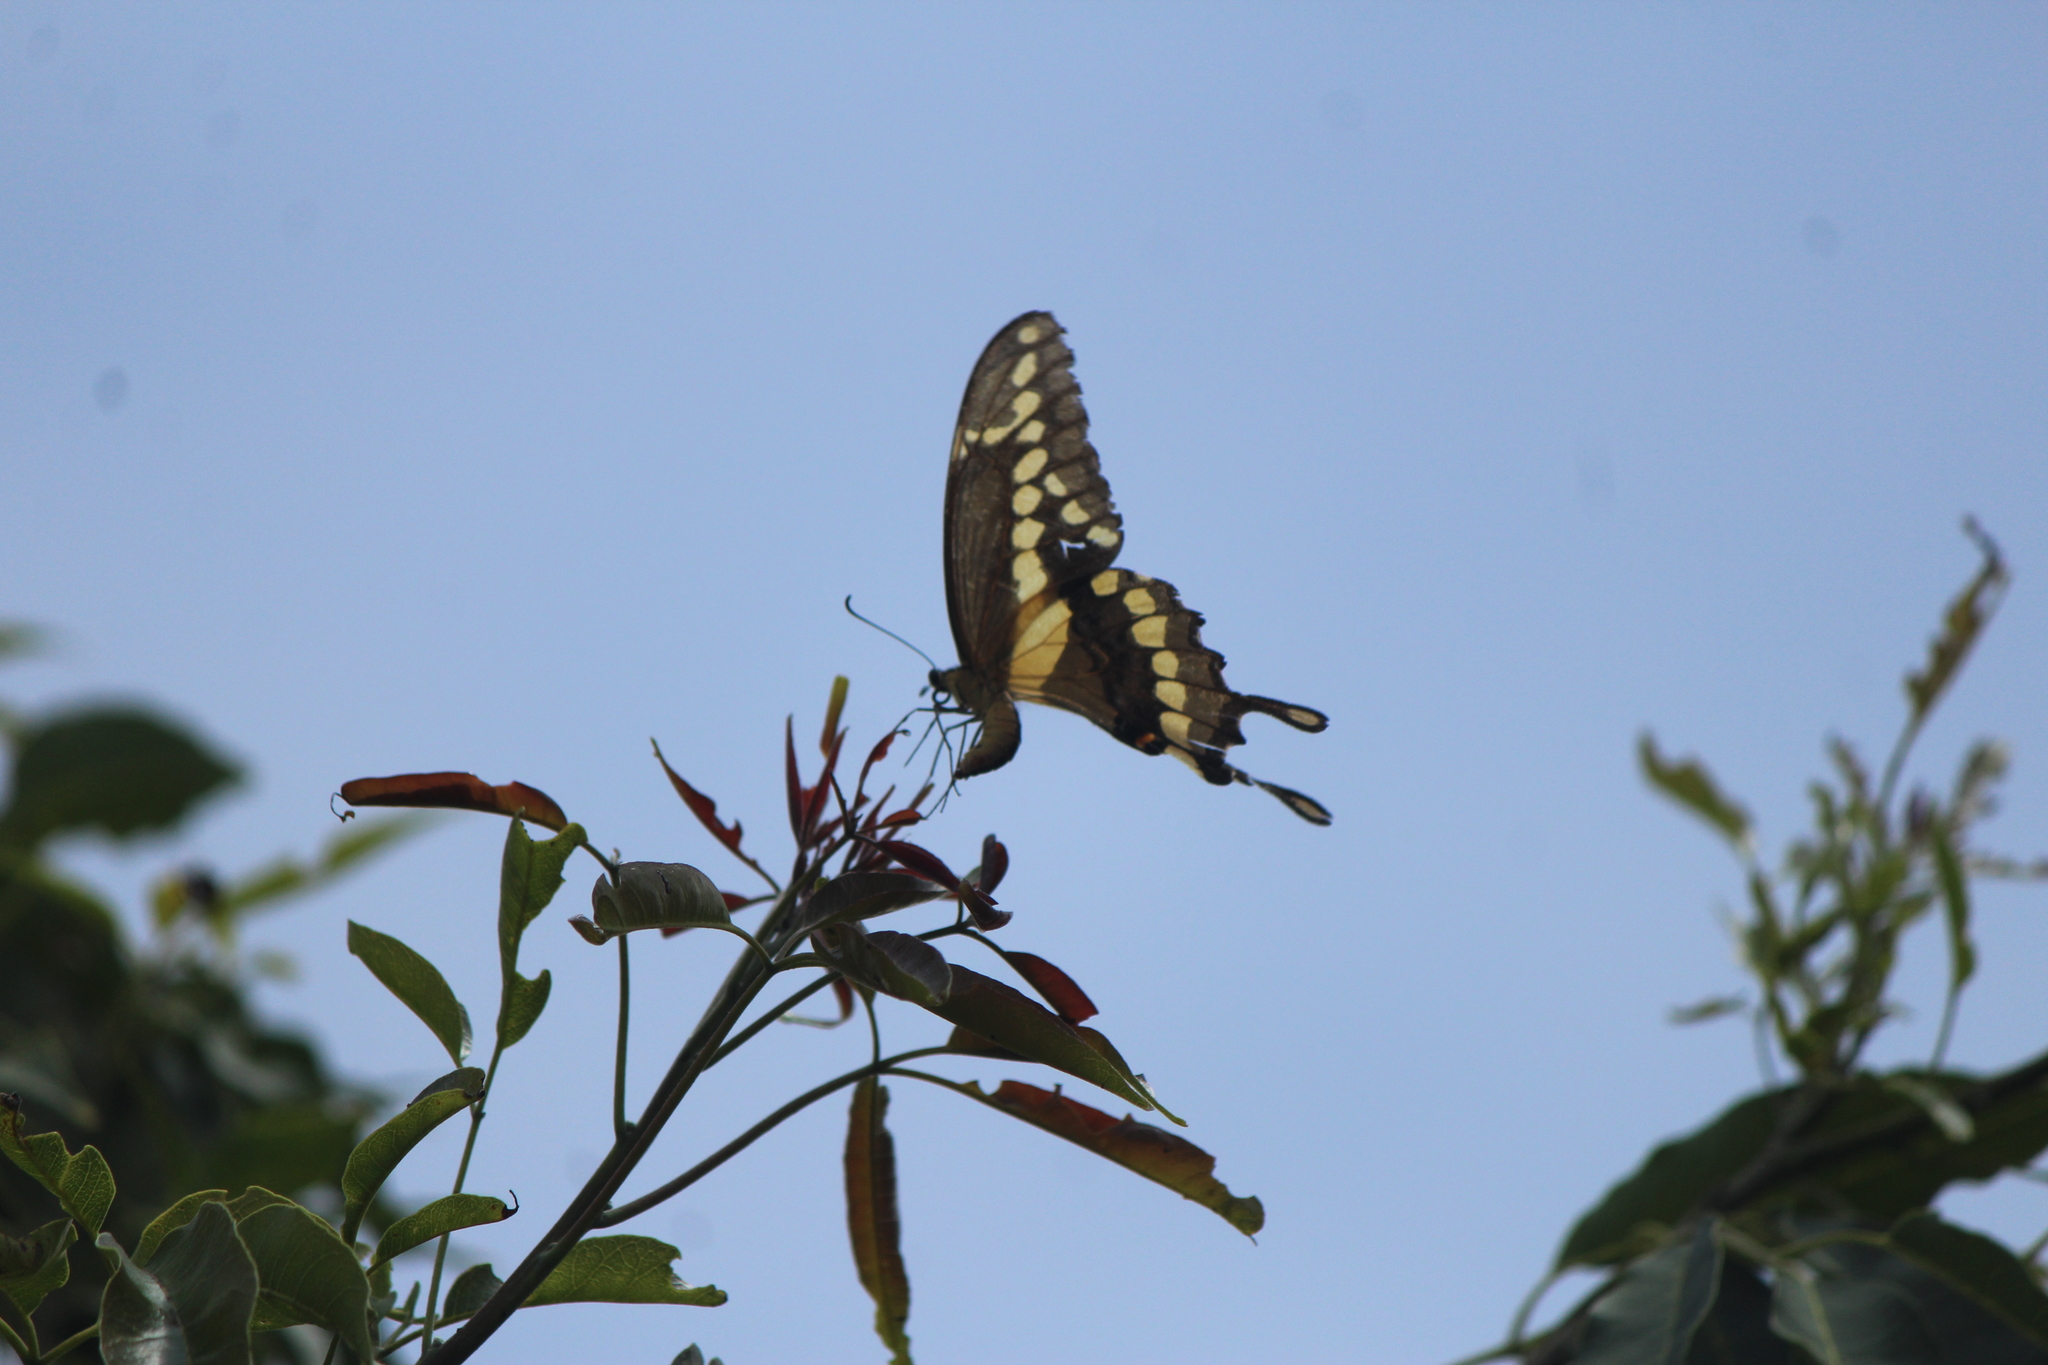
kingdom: Animalia
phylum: Arthropoda
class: Insecta
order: Lepidoptera
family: Papilionidae
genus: Papilio
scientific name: Papilio rumiko
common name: Western giant swallowtail
